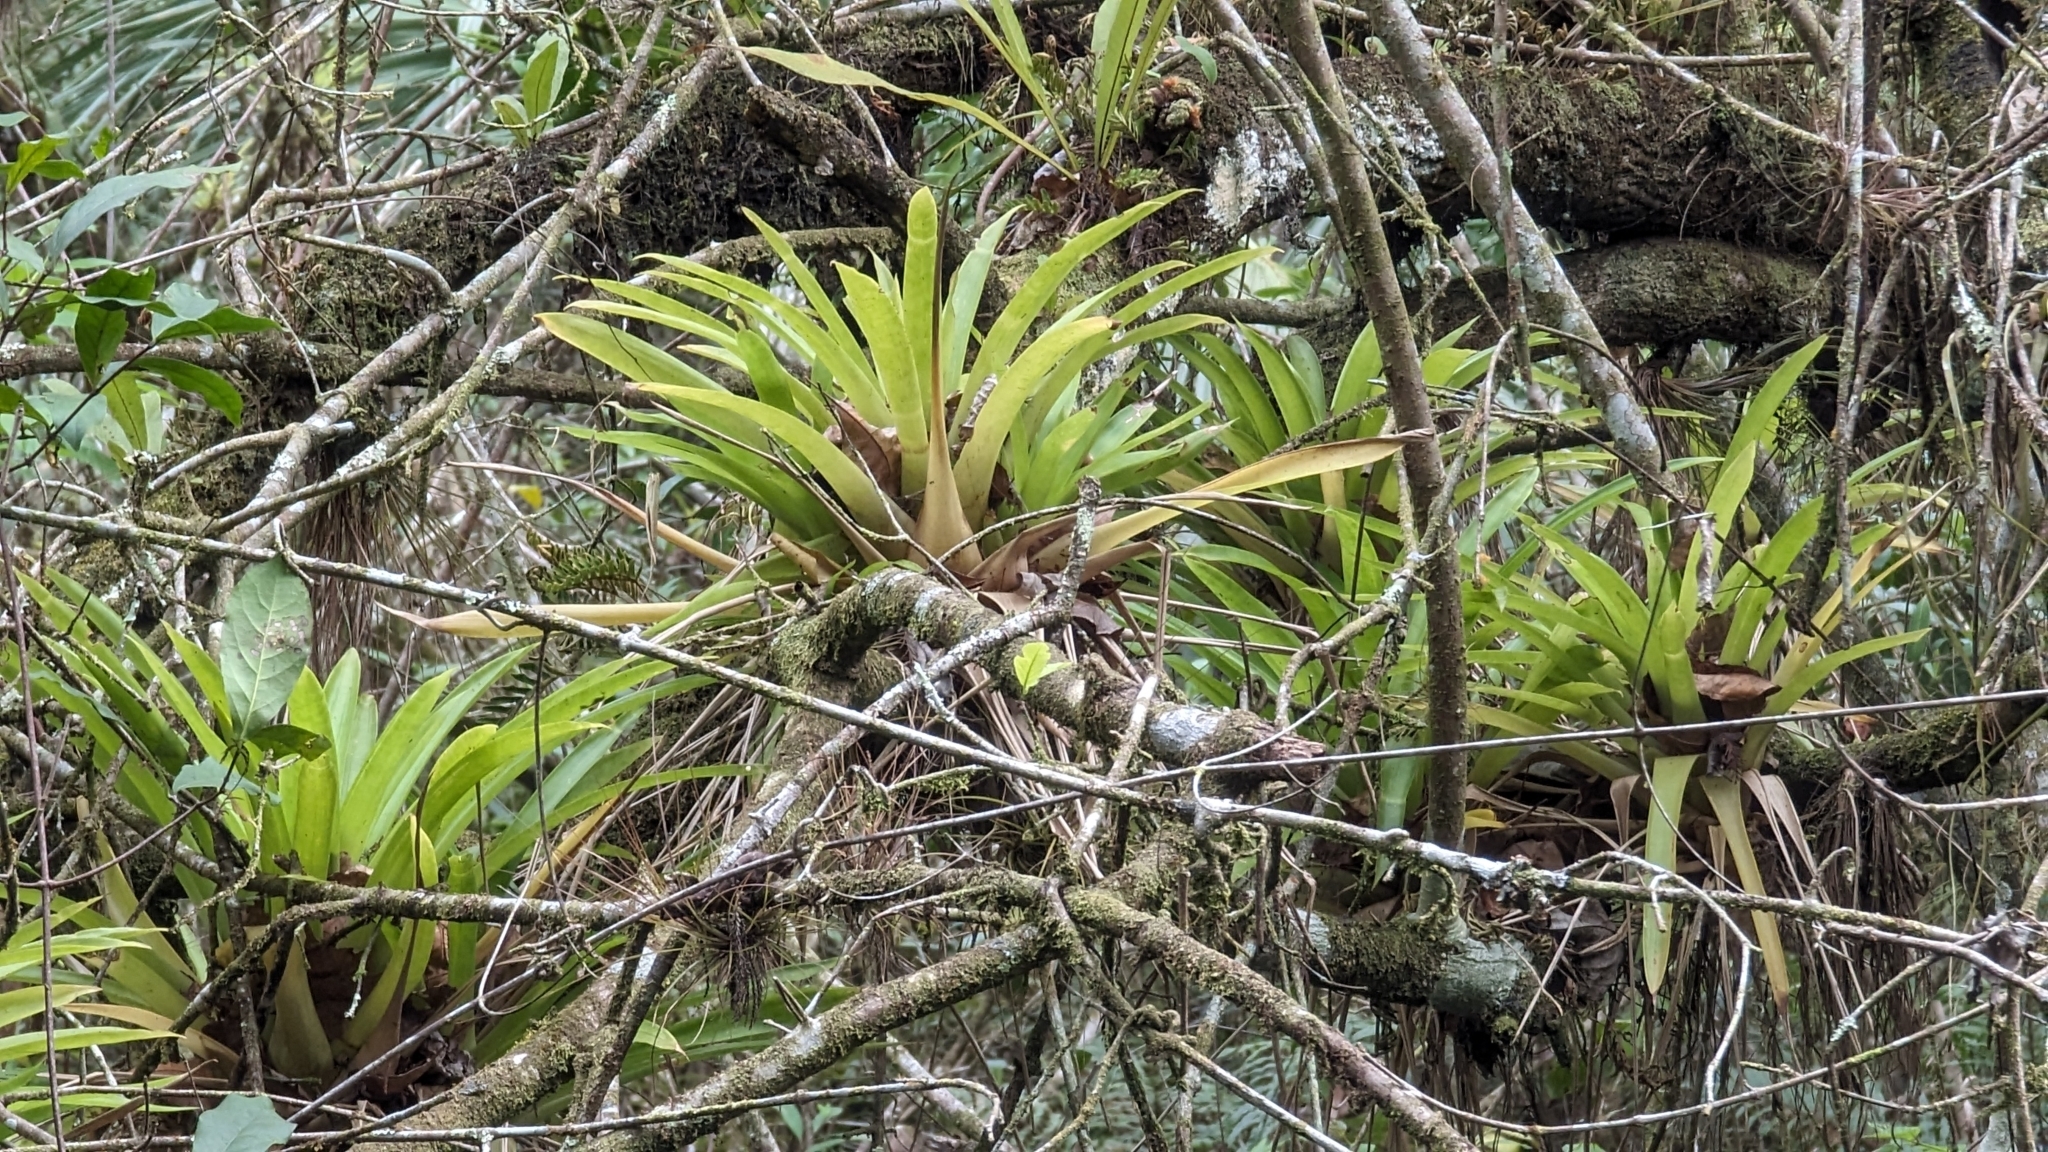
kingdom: Plantae
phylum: Tracheophyta
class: Liliopsida
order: Poales
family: Bromeliaceae
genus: Guzmania
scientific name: Guzmania monostachia
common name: West indian tufted airplant
